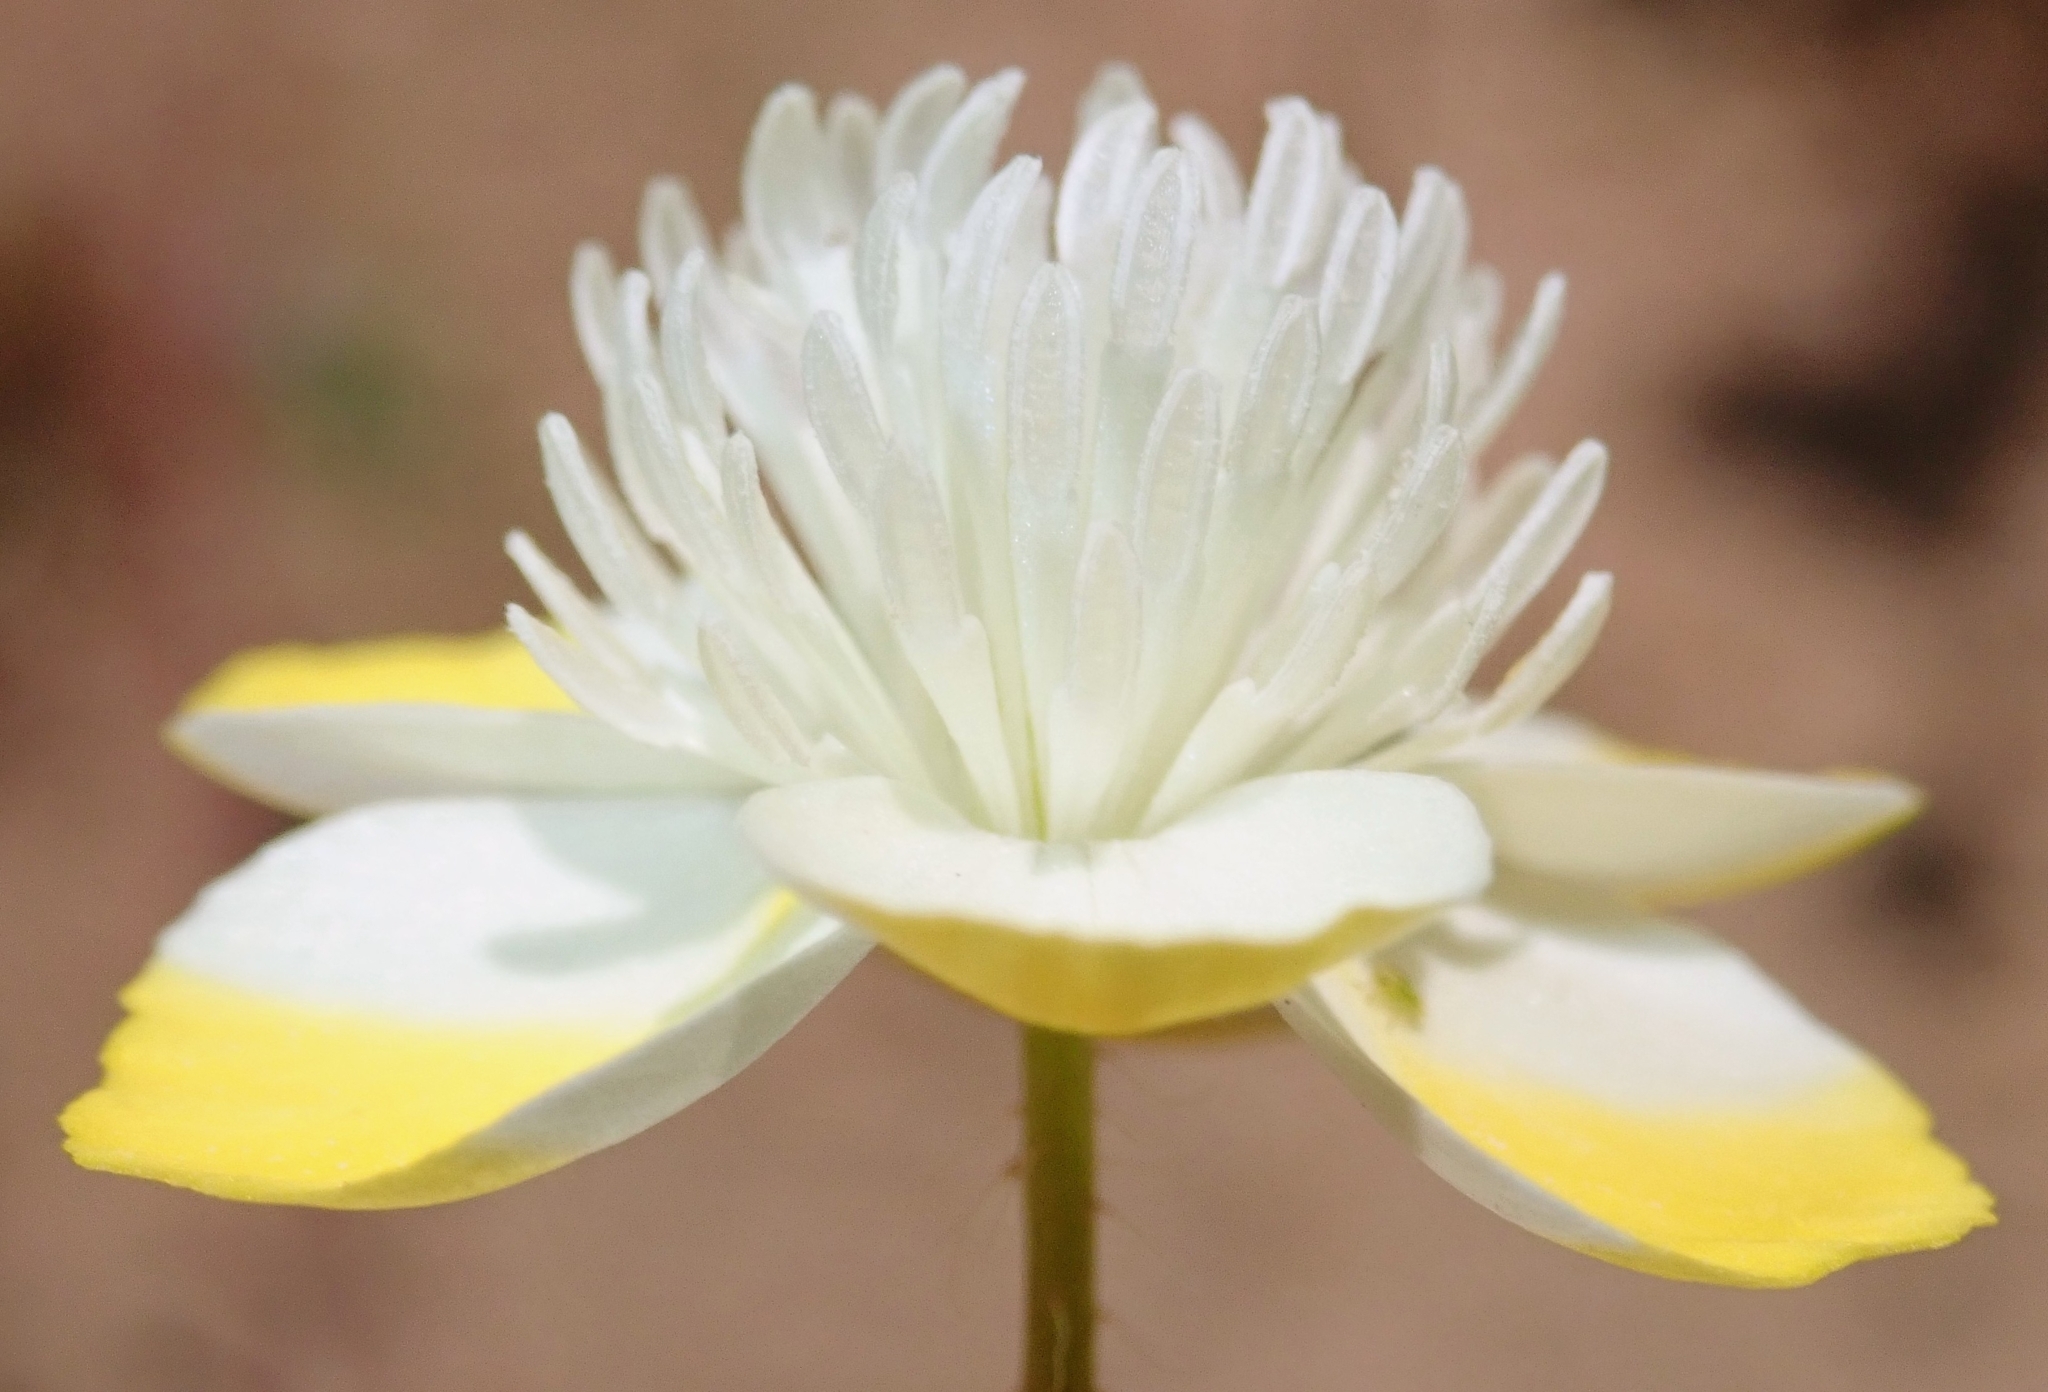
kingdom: Plantae
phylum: Tracheophyta
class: Magnoliopsida
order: Ranunculales
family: Papaveraceae
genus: Platystemon
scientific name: Platystemon californicus
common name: Cream-cups
